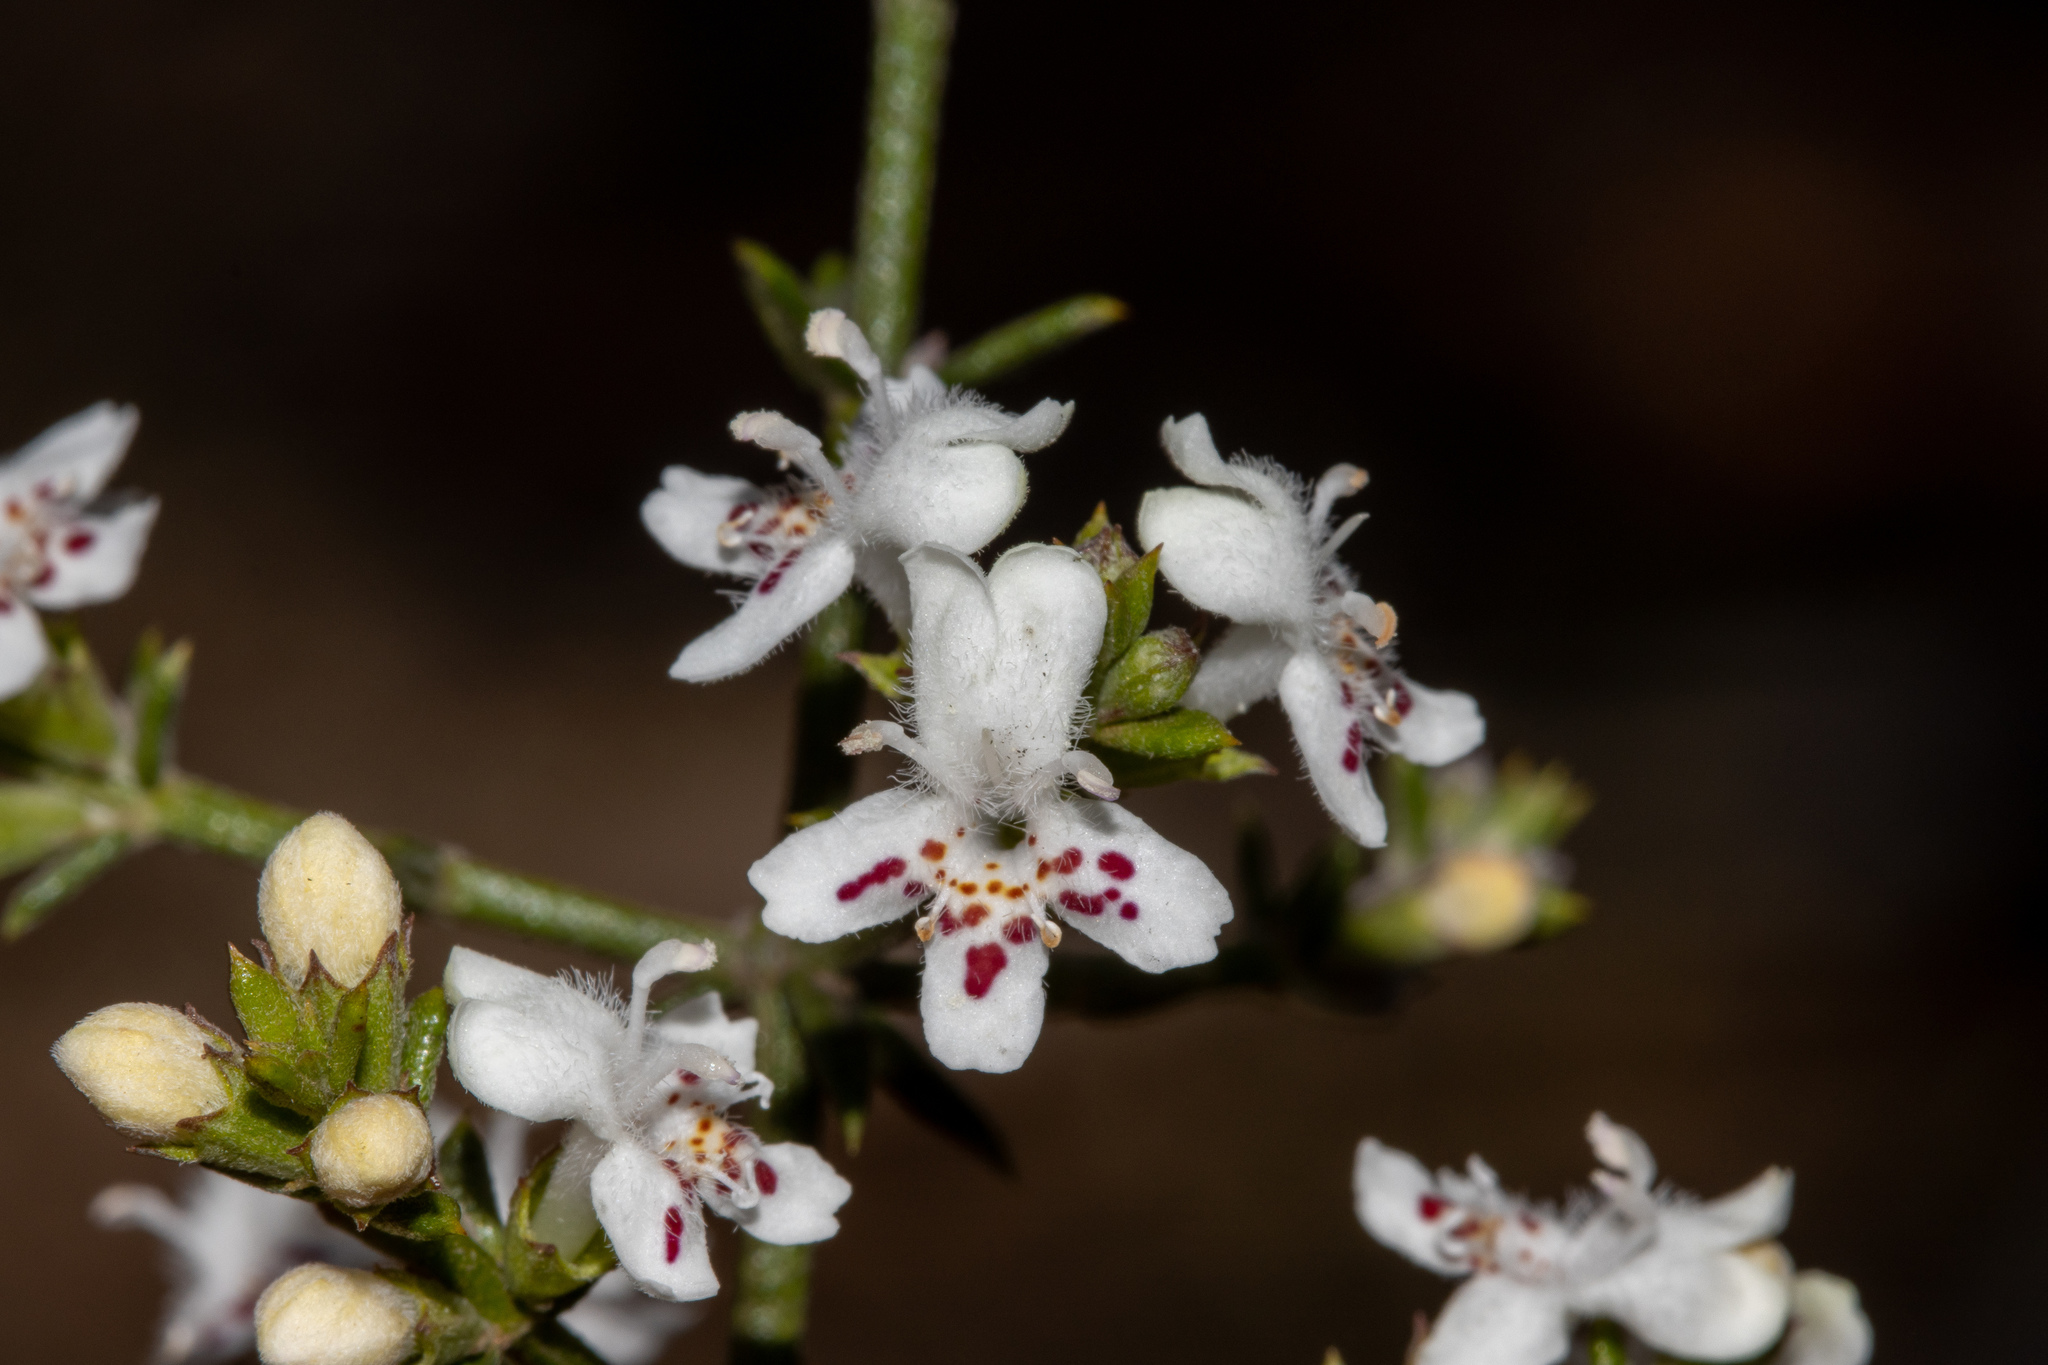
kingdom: Plantae
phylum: Tracheophyta
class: Magnoliopsida
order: Lamiales
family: Lamiaceae
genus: Westringia
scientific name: Westringia rigida
